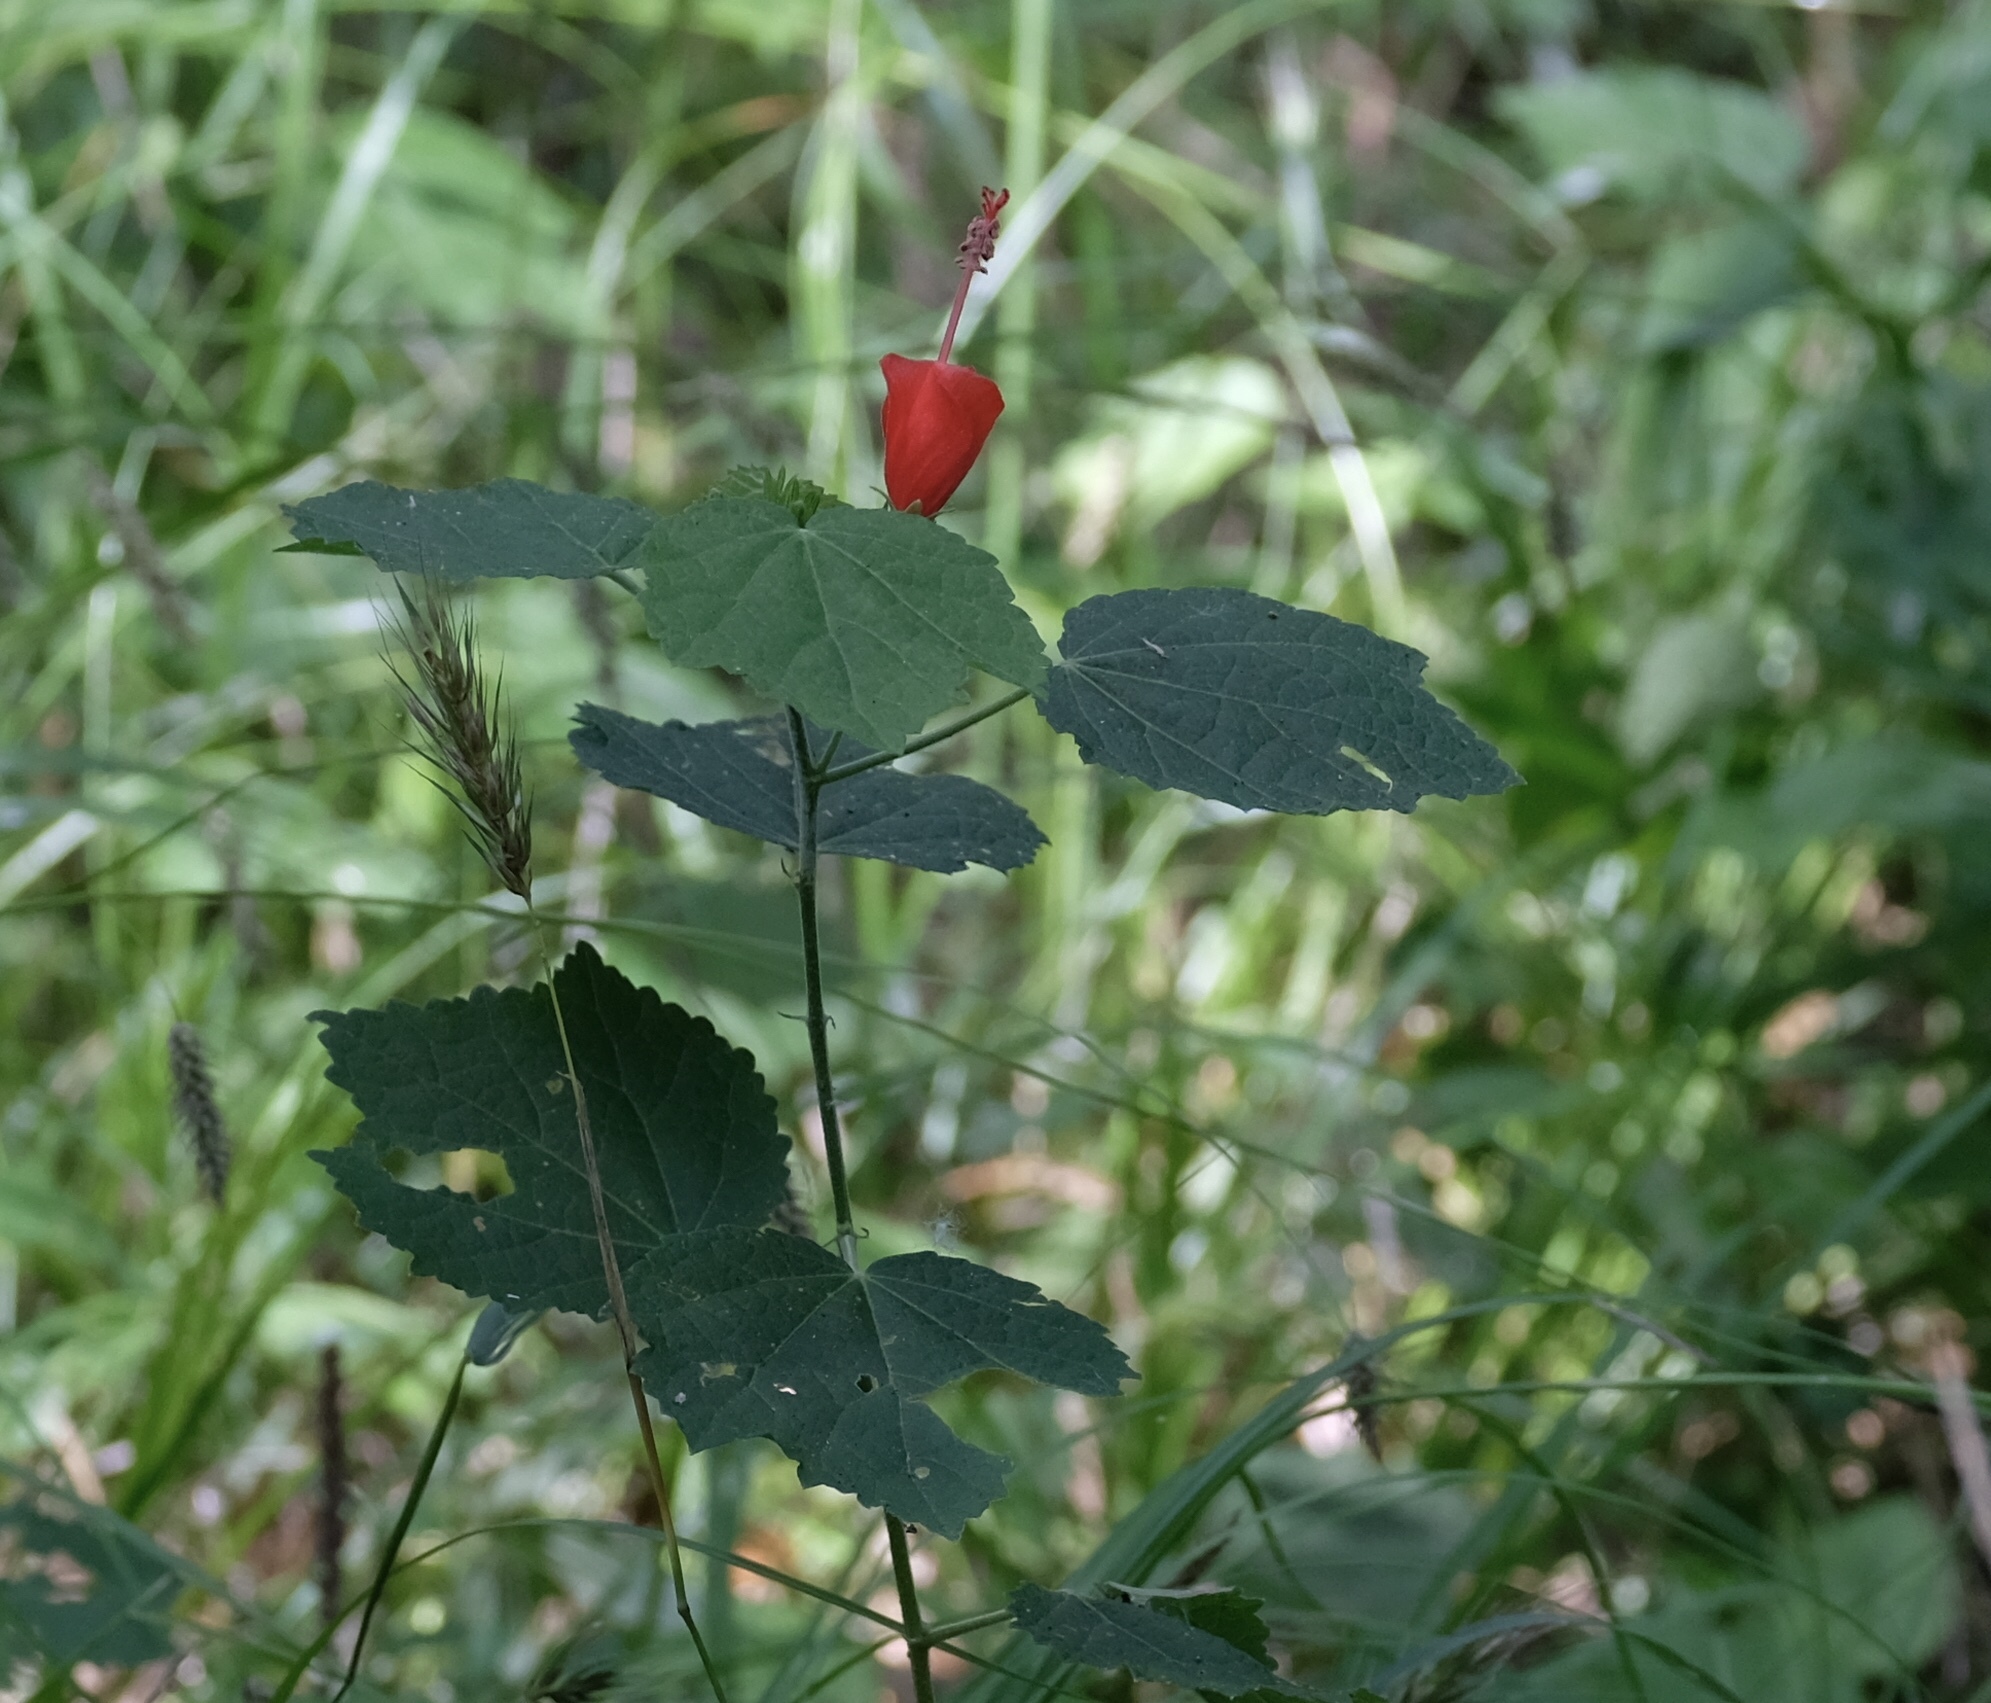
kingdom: Plantae
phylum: Tracheophyta
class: Magnoliopsida
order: Malvales
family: Malvaceae
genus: Malvaviscus
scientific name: Malvaviscus arboreus
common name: Wax mallow
